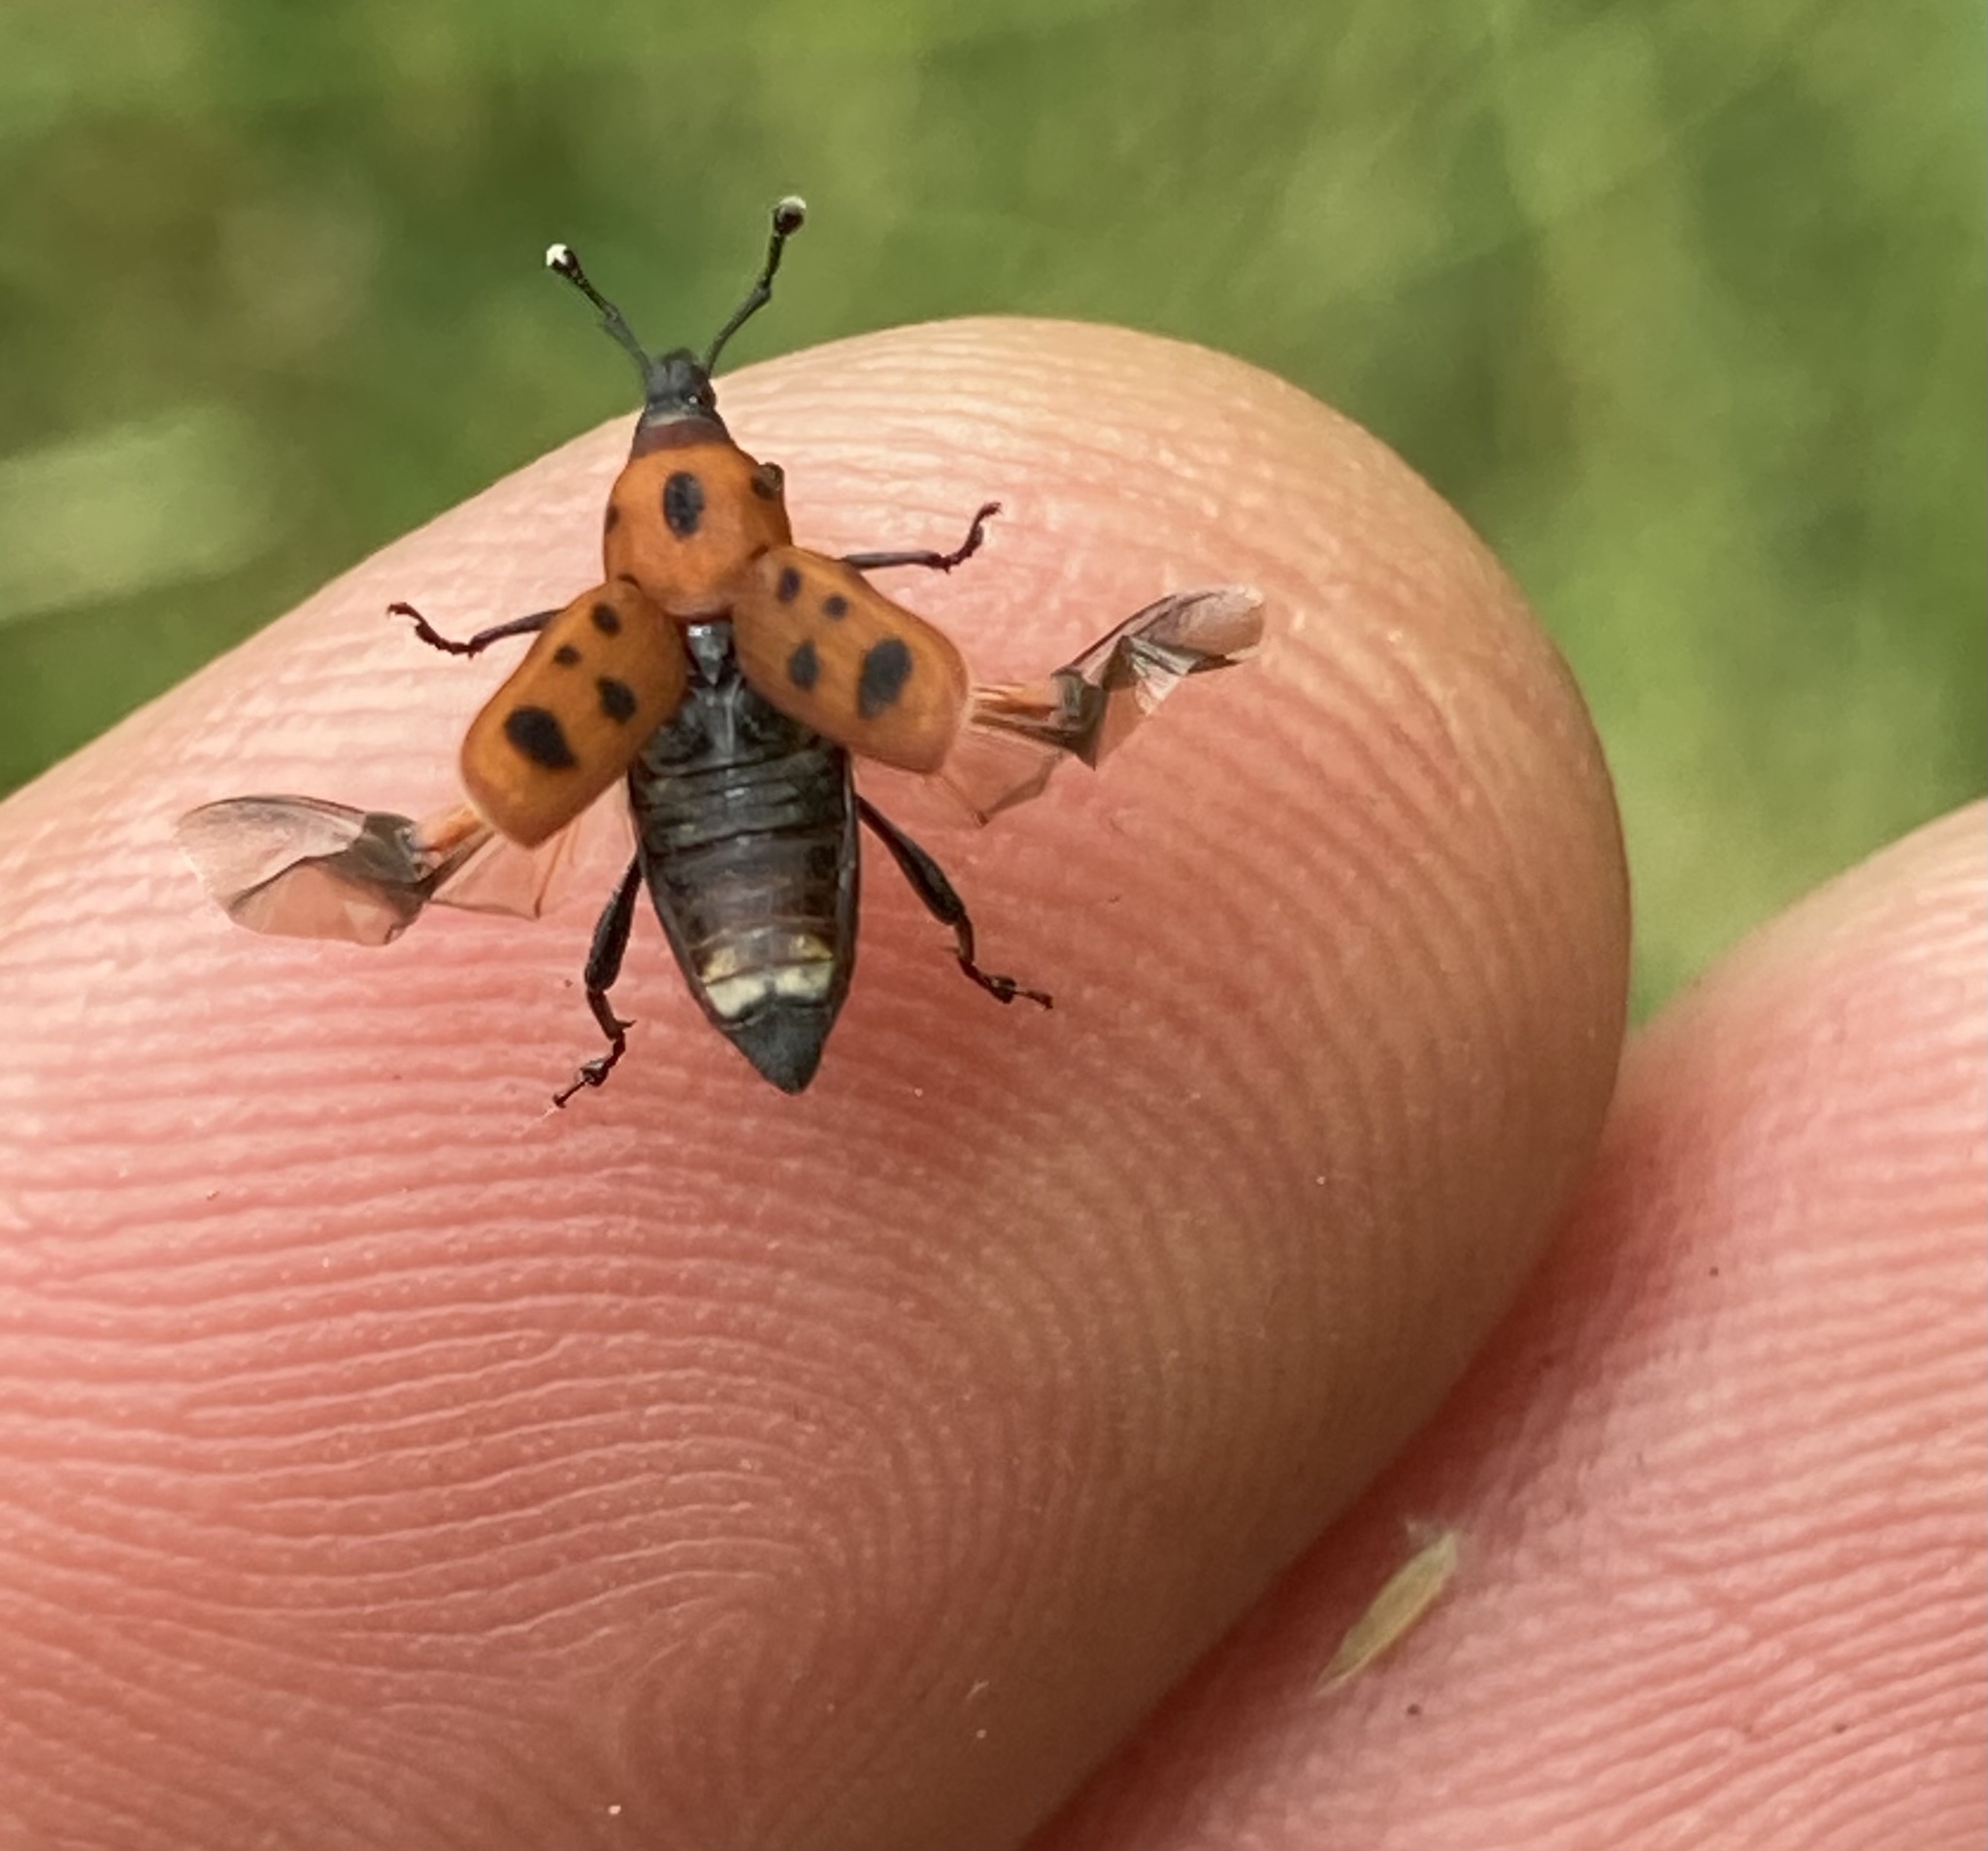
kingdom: Animalia
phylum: Arthropoda
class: Insecta
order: Coleoptera
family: Dryophthoridae
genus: Rhodobaenus
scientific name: Rhodobaenus tredecimpunctatus
